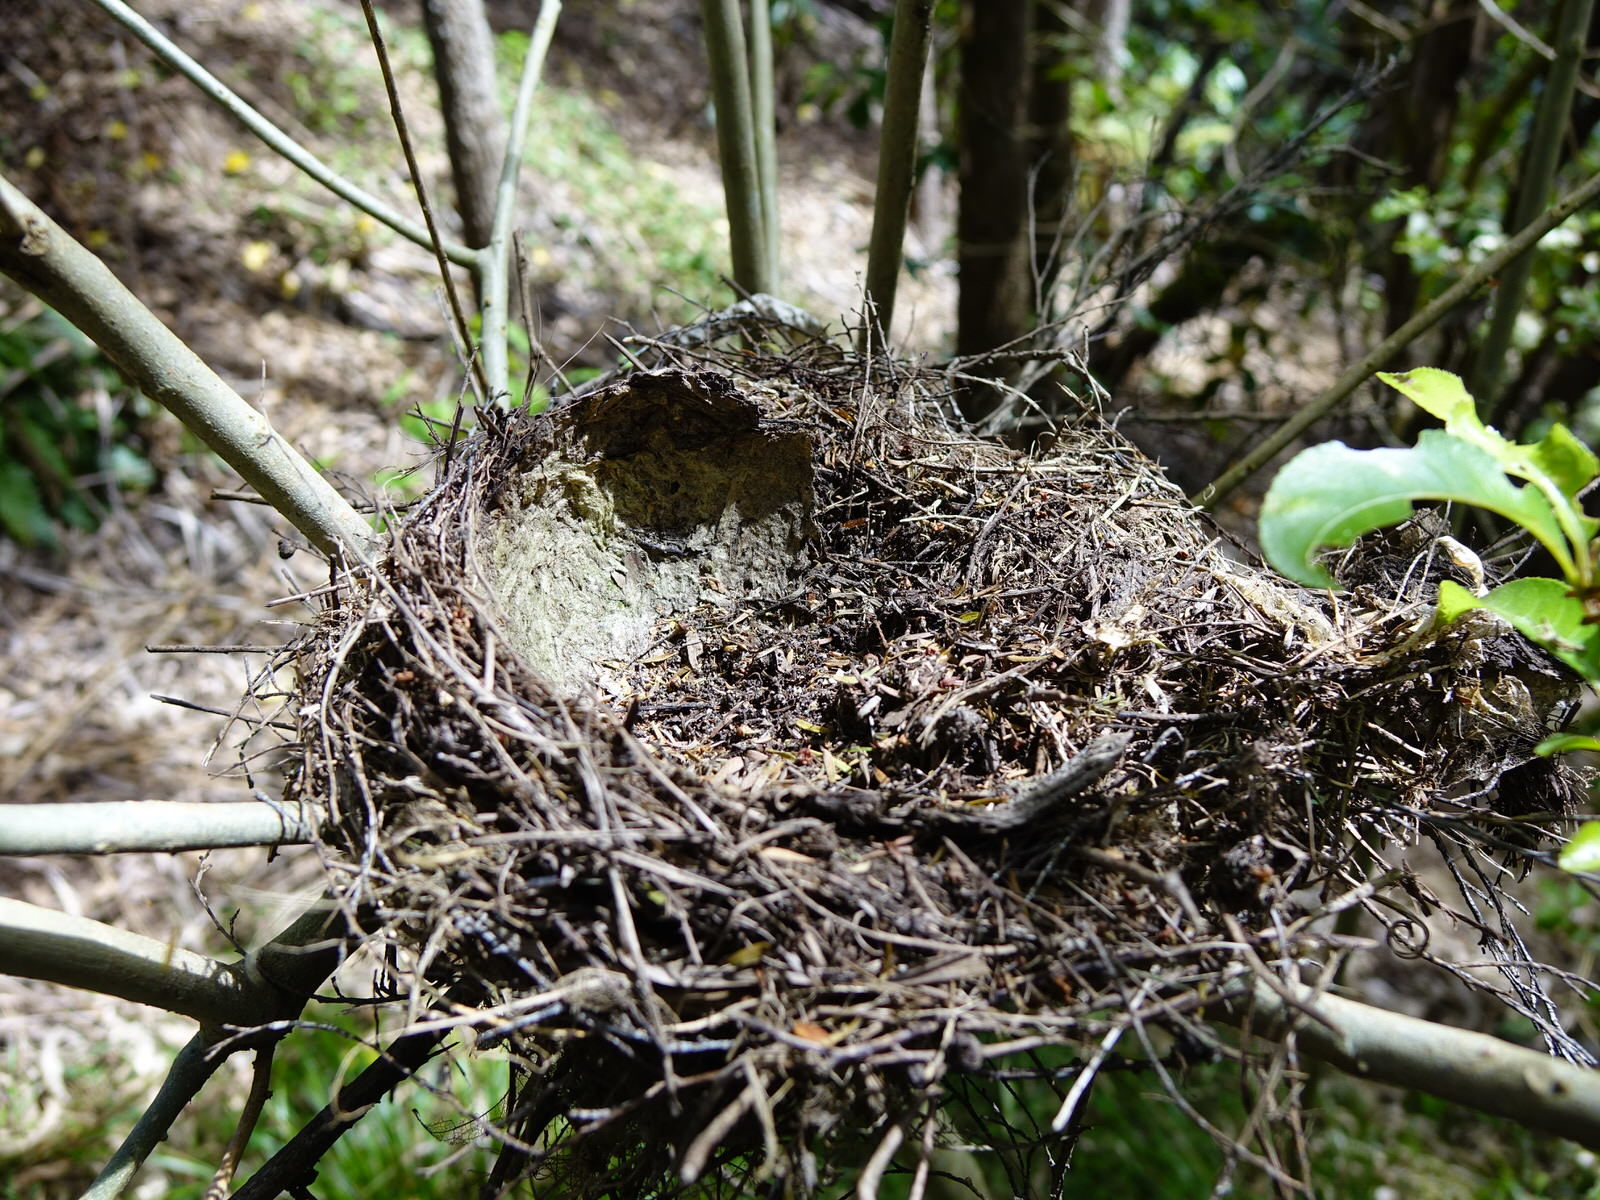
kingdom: Animalia
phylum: Chordata
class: Aves
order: Passeriformes
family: Turdidae
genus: Turdus
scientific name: Turdus philomelos
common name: Song thrush
